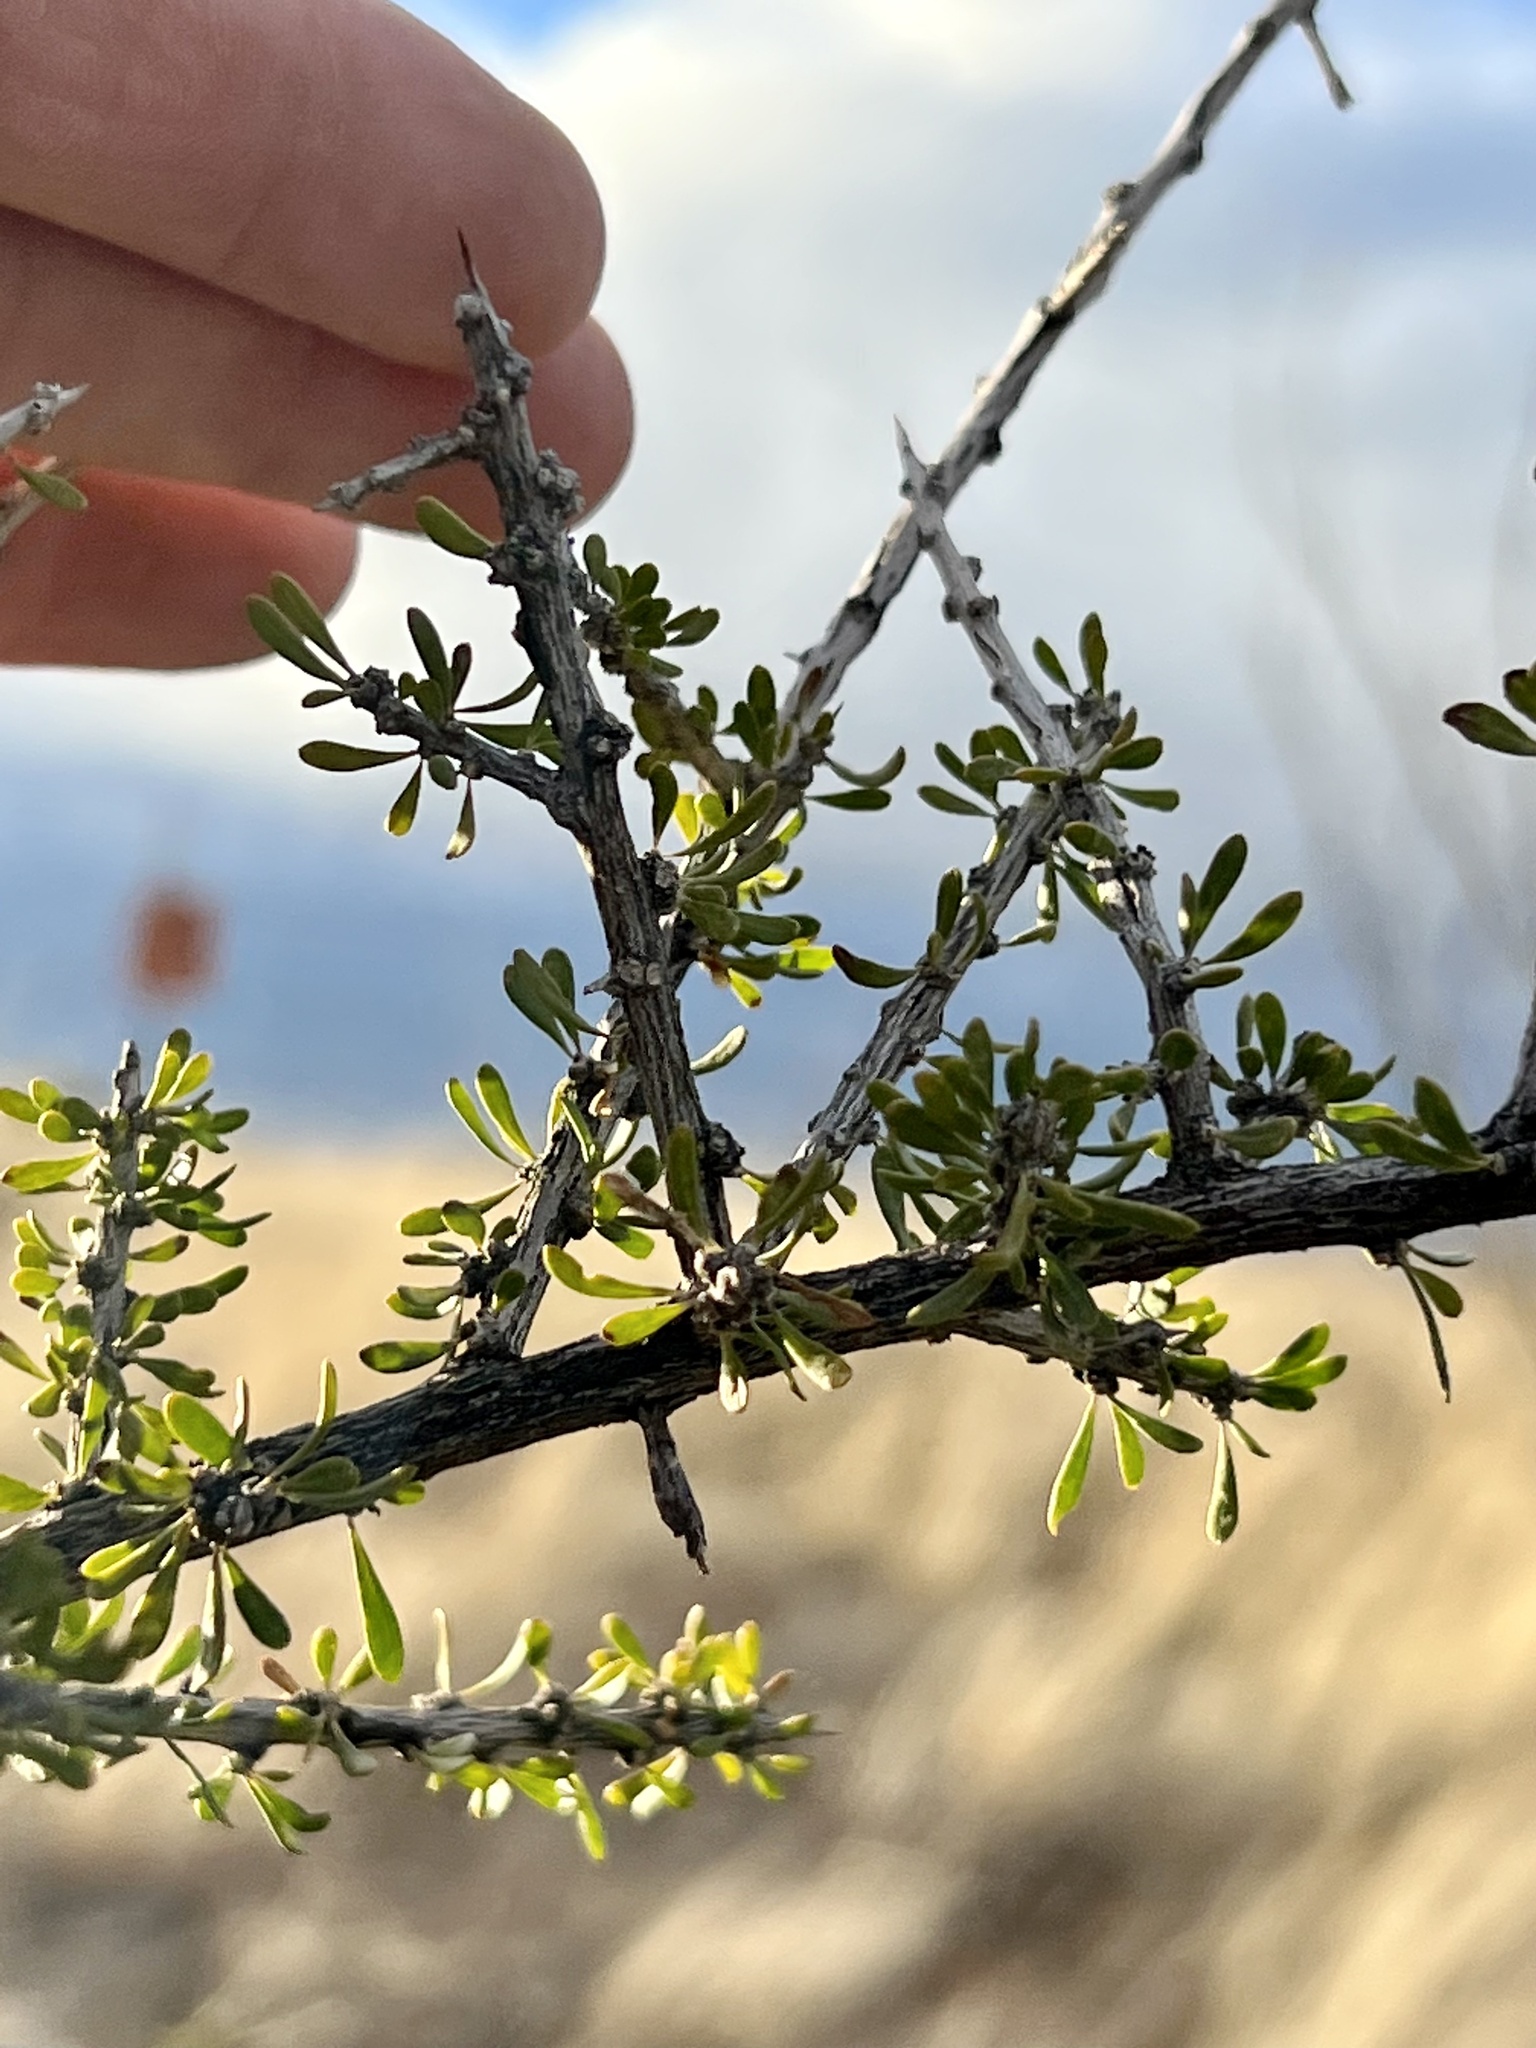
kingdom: Plantae
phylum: Tracheophyta
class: Magnoliopsida
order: Solanales
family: Solanaceae
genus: Lycium
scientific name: Lycium andersonii
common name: Water-jacket
